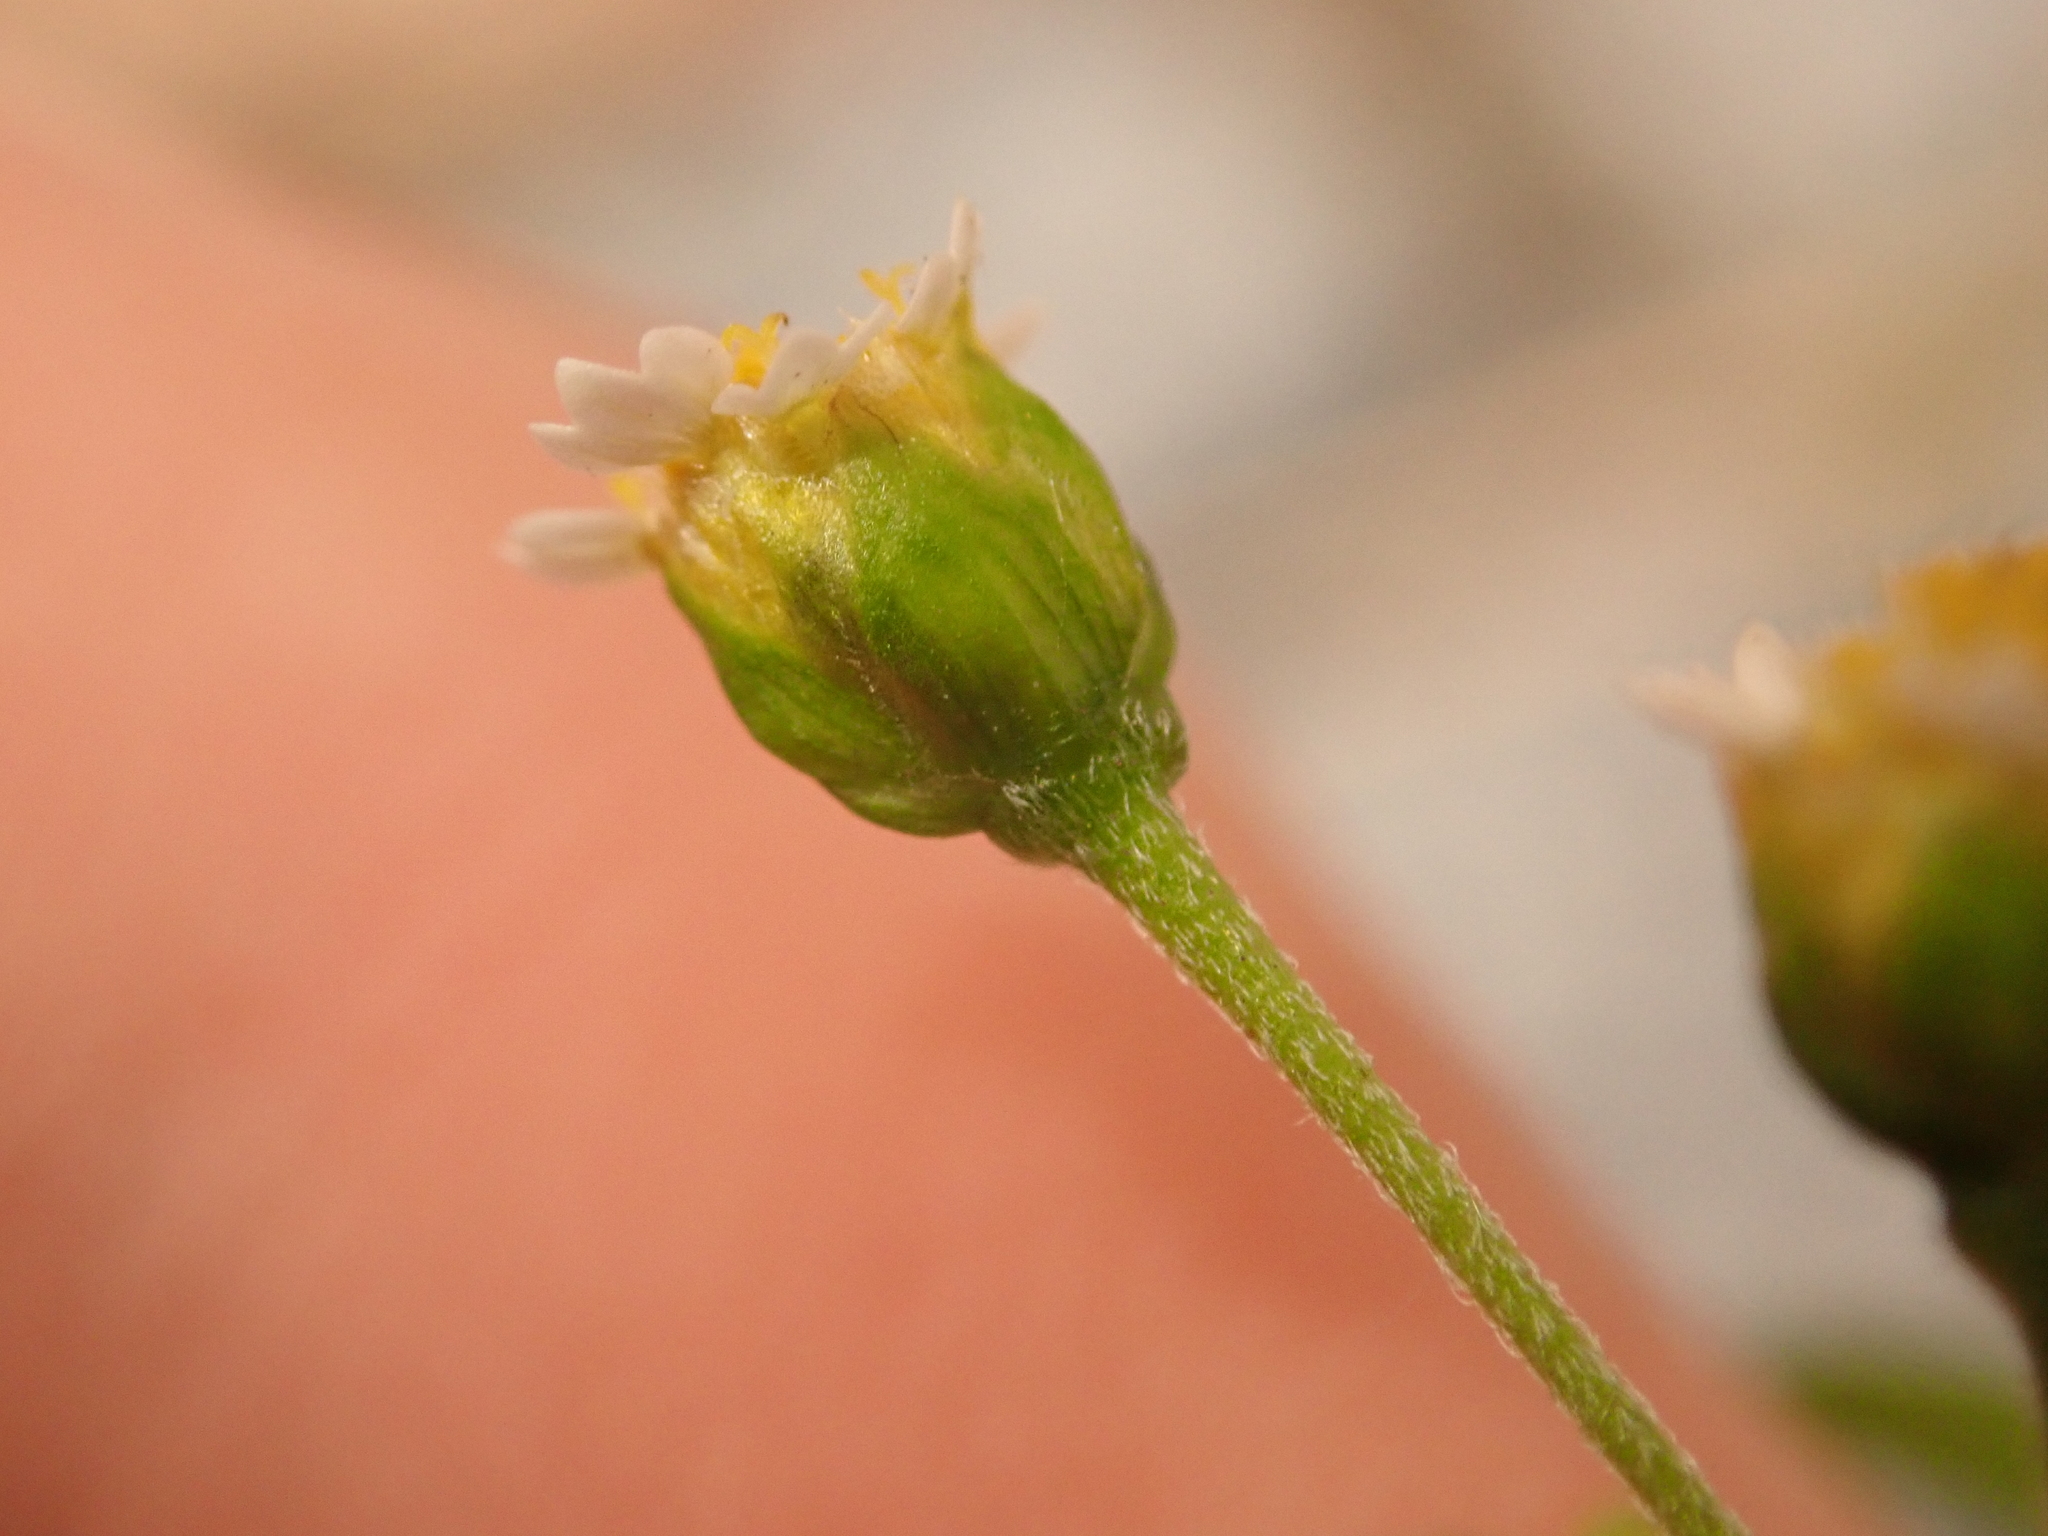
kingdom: Plantae
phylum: Tracheophyta
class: Magnoliopsida
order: Asterales
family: Asteraceae
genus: Galinsoga
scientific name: Galinsoga parviflora
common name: Gallant soldier
